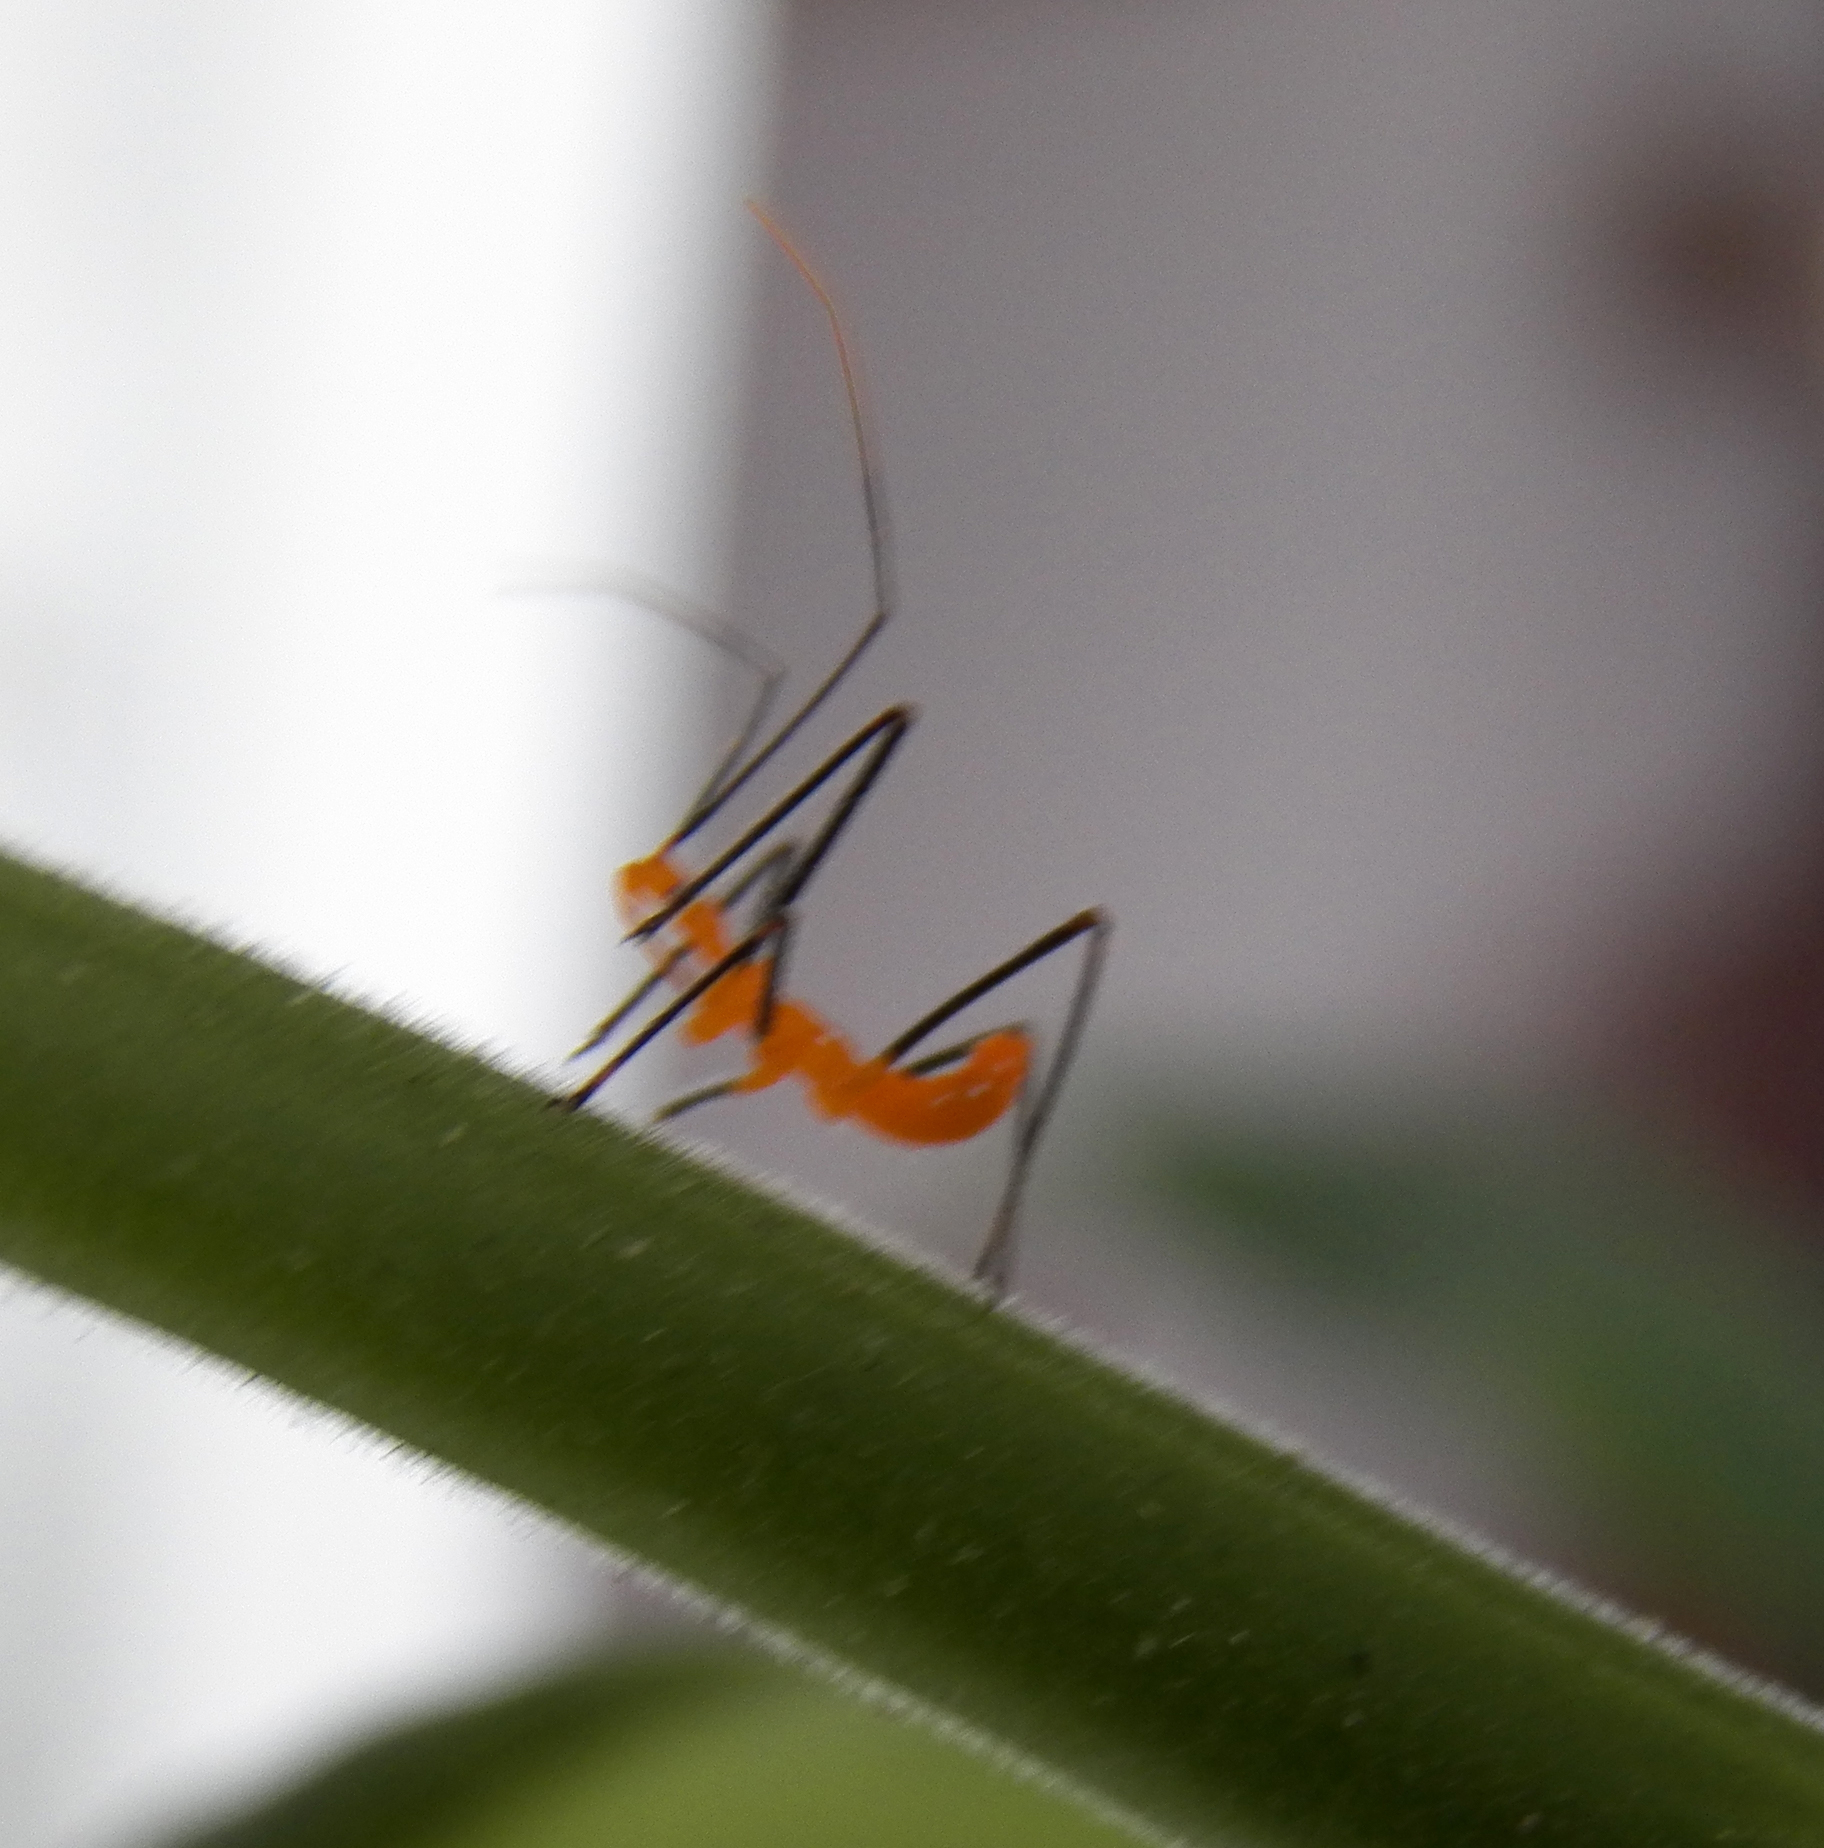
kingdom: Animalia
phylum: Arthropoda
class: Insecta
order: Hemiptera
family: Reduviidae
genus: Zelus
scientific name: Zelus longipes
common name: Milkweed assassin bug
